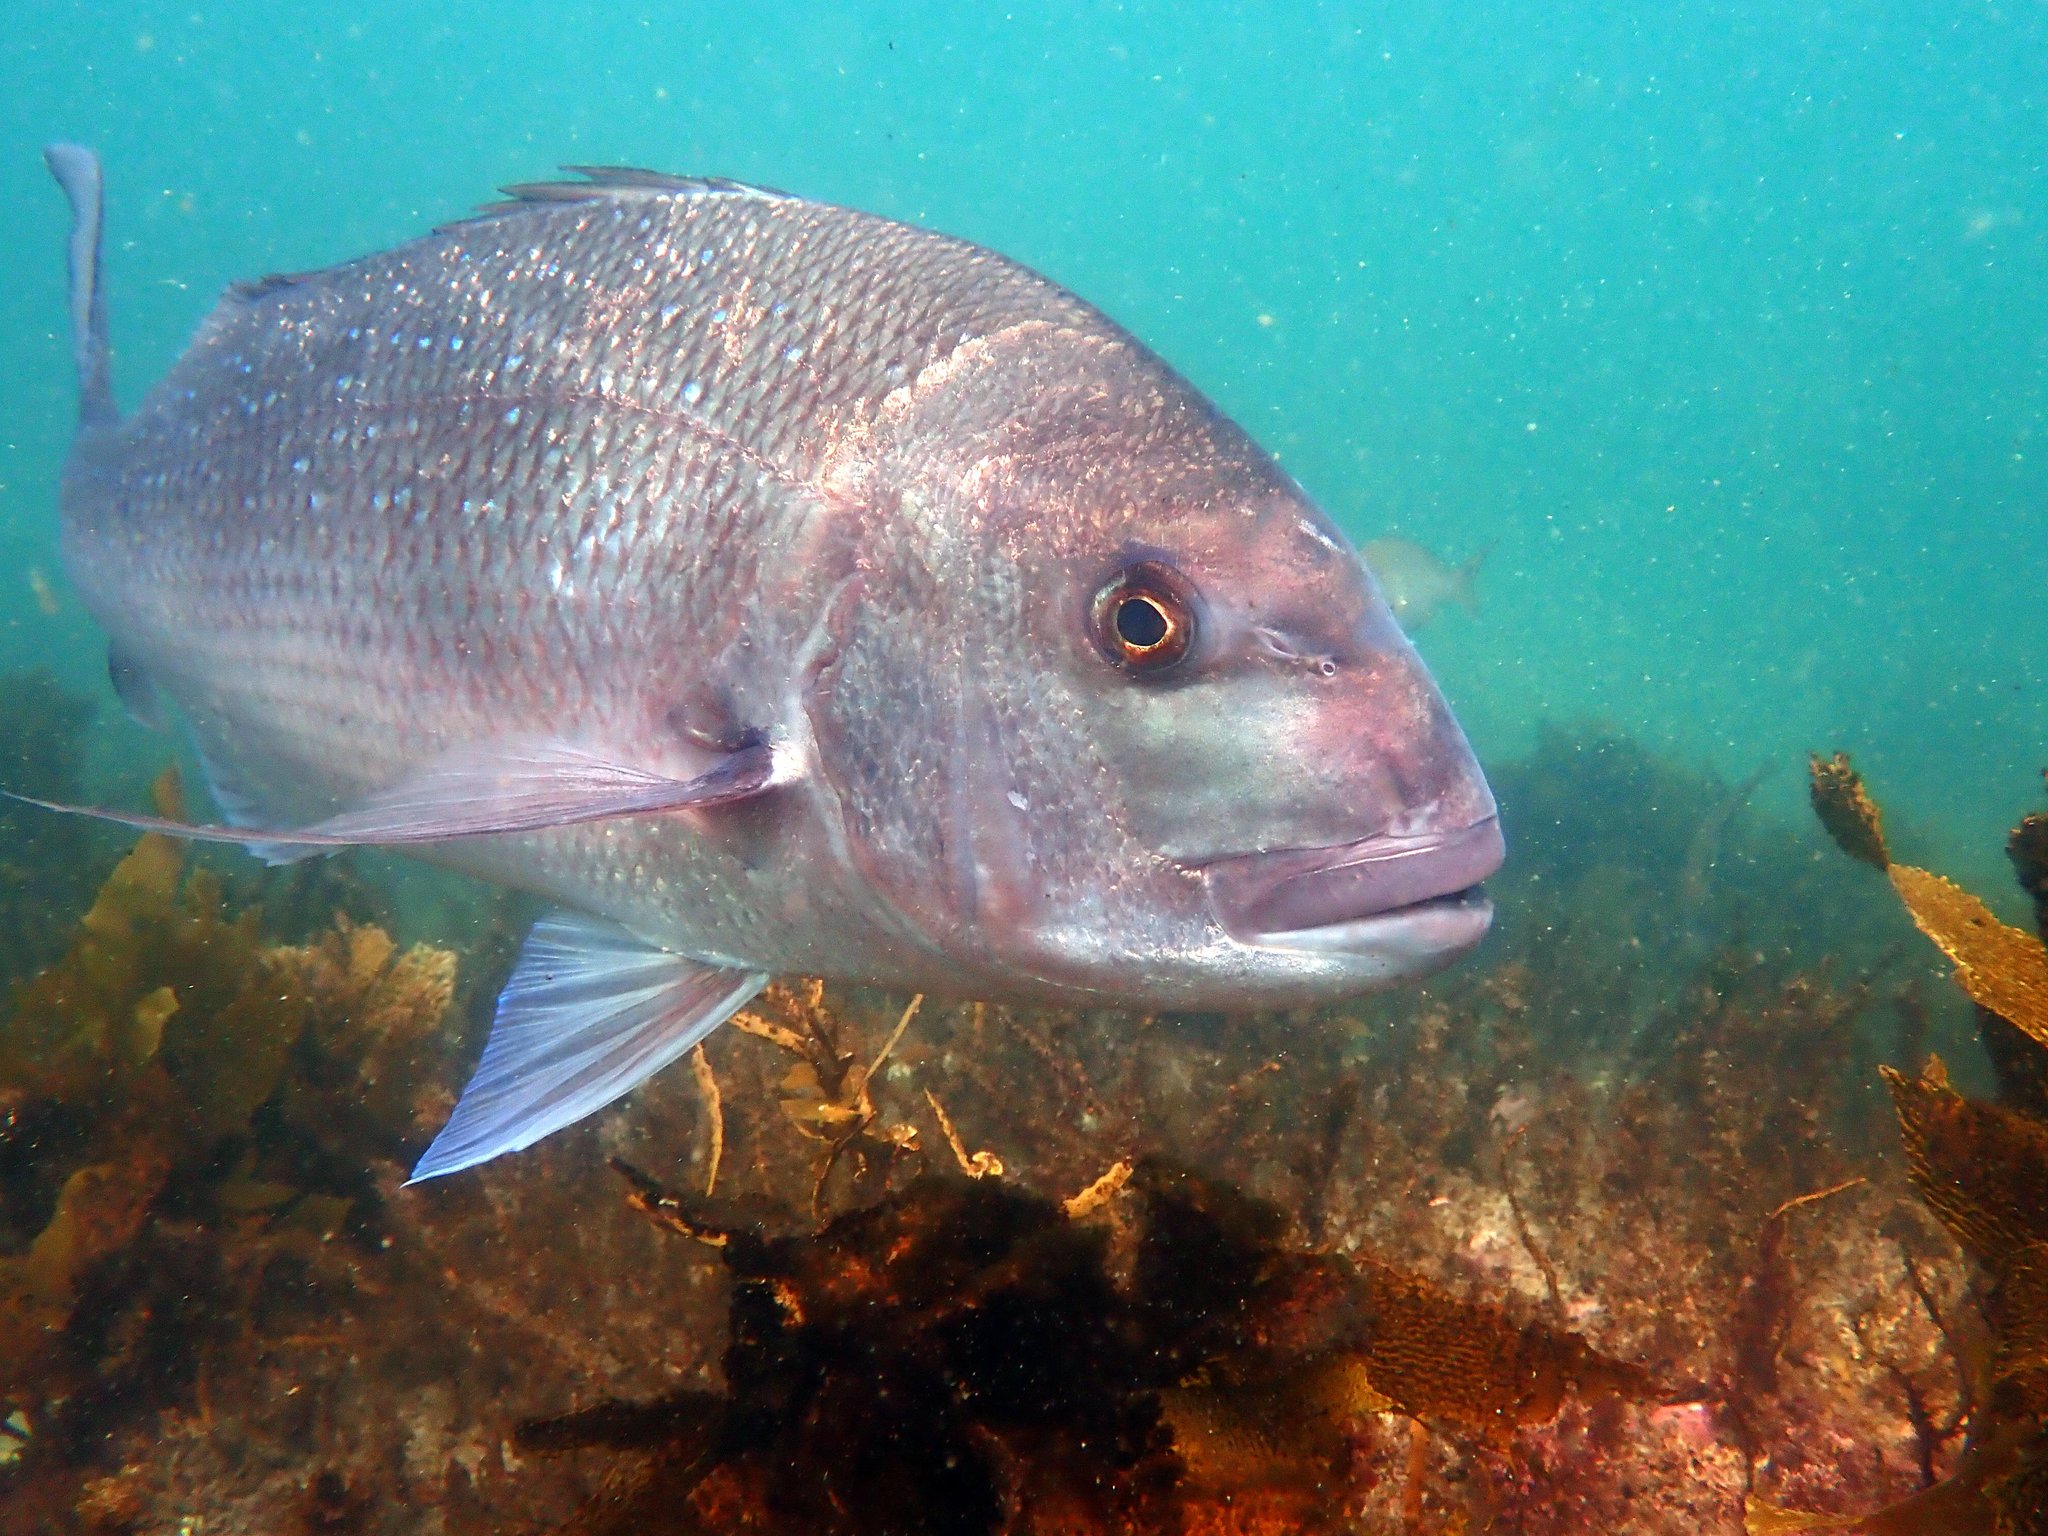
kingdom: Animalia
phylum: Chordata
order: Perciformes
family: Sparidae
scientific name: Sparidae
